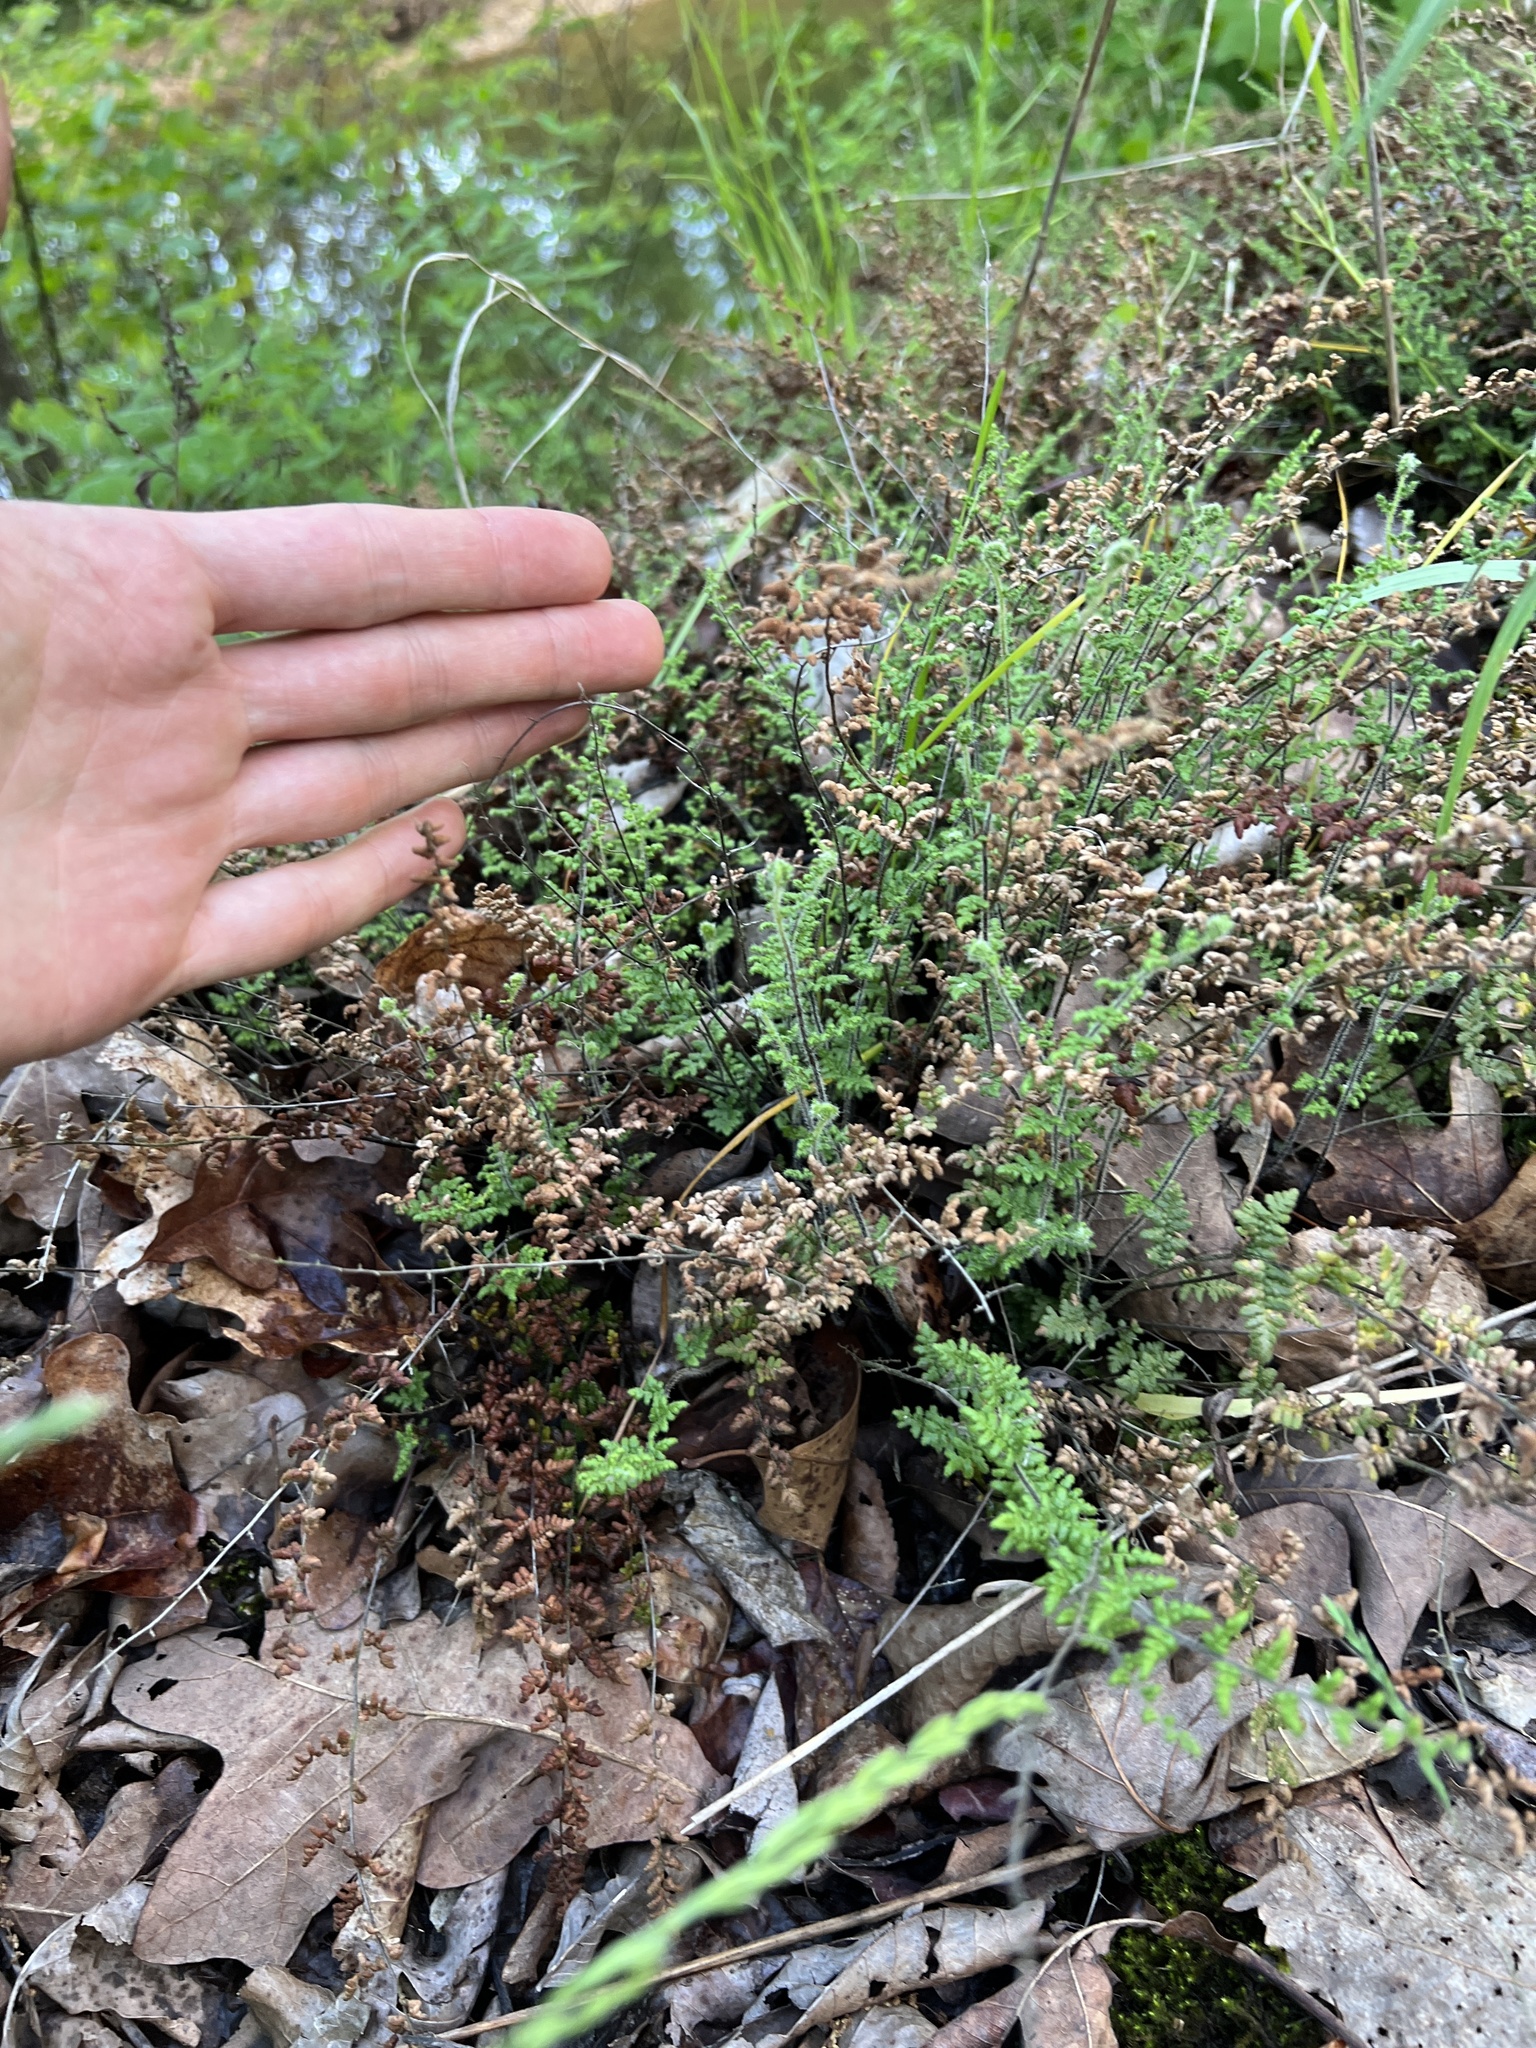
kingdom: Plantae
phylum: Tracheophyta
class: Polypodiopsida
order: Polypodiales
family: Pteridaceae
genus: Myriopteris
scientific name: Myriopteris lanosa
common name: Hairy lip fern
